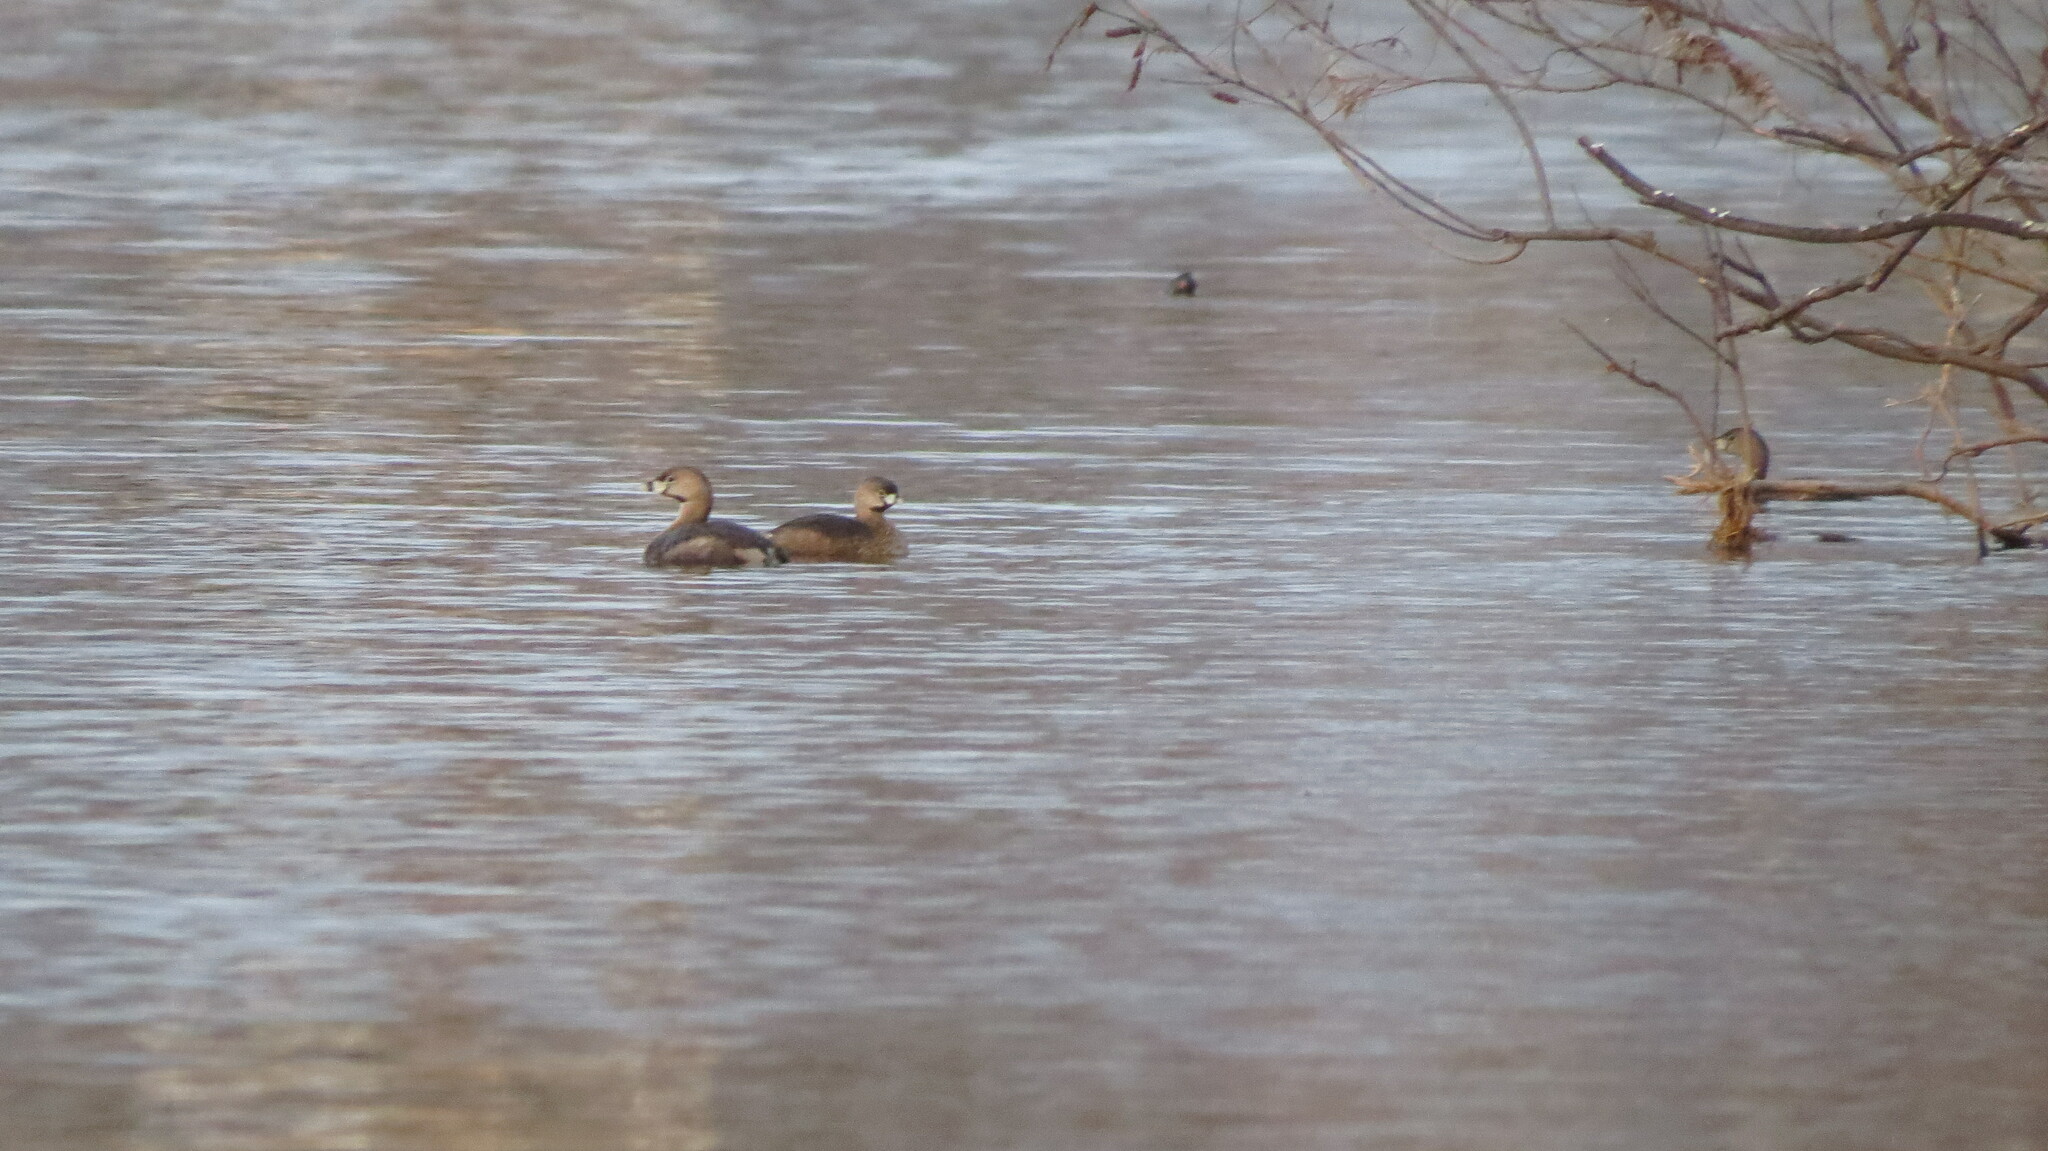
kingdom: Animalia
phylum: Chordata
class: Aves
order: Podicipediformes
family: Podicipedidae
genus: Podilymbus
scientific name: Podilymbus podiceps
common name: Pied-billed grebe
